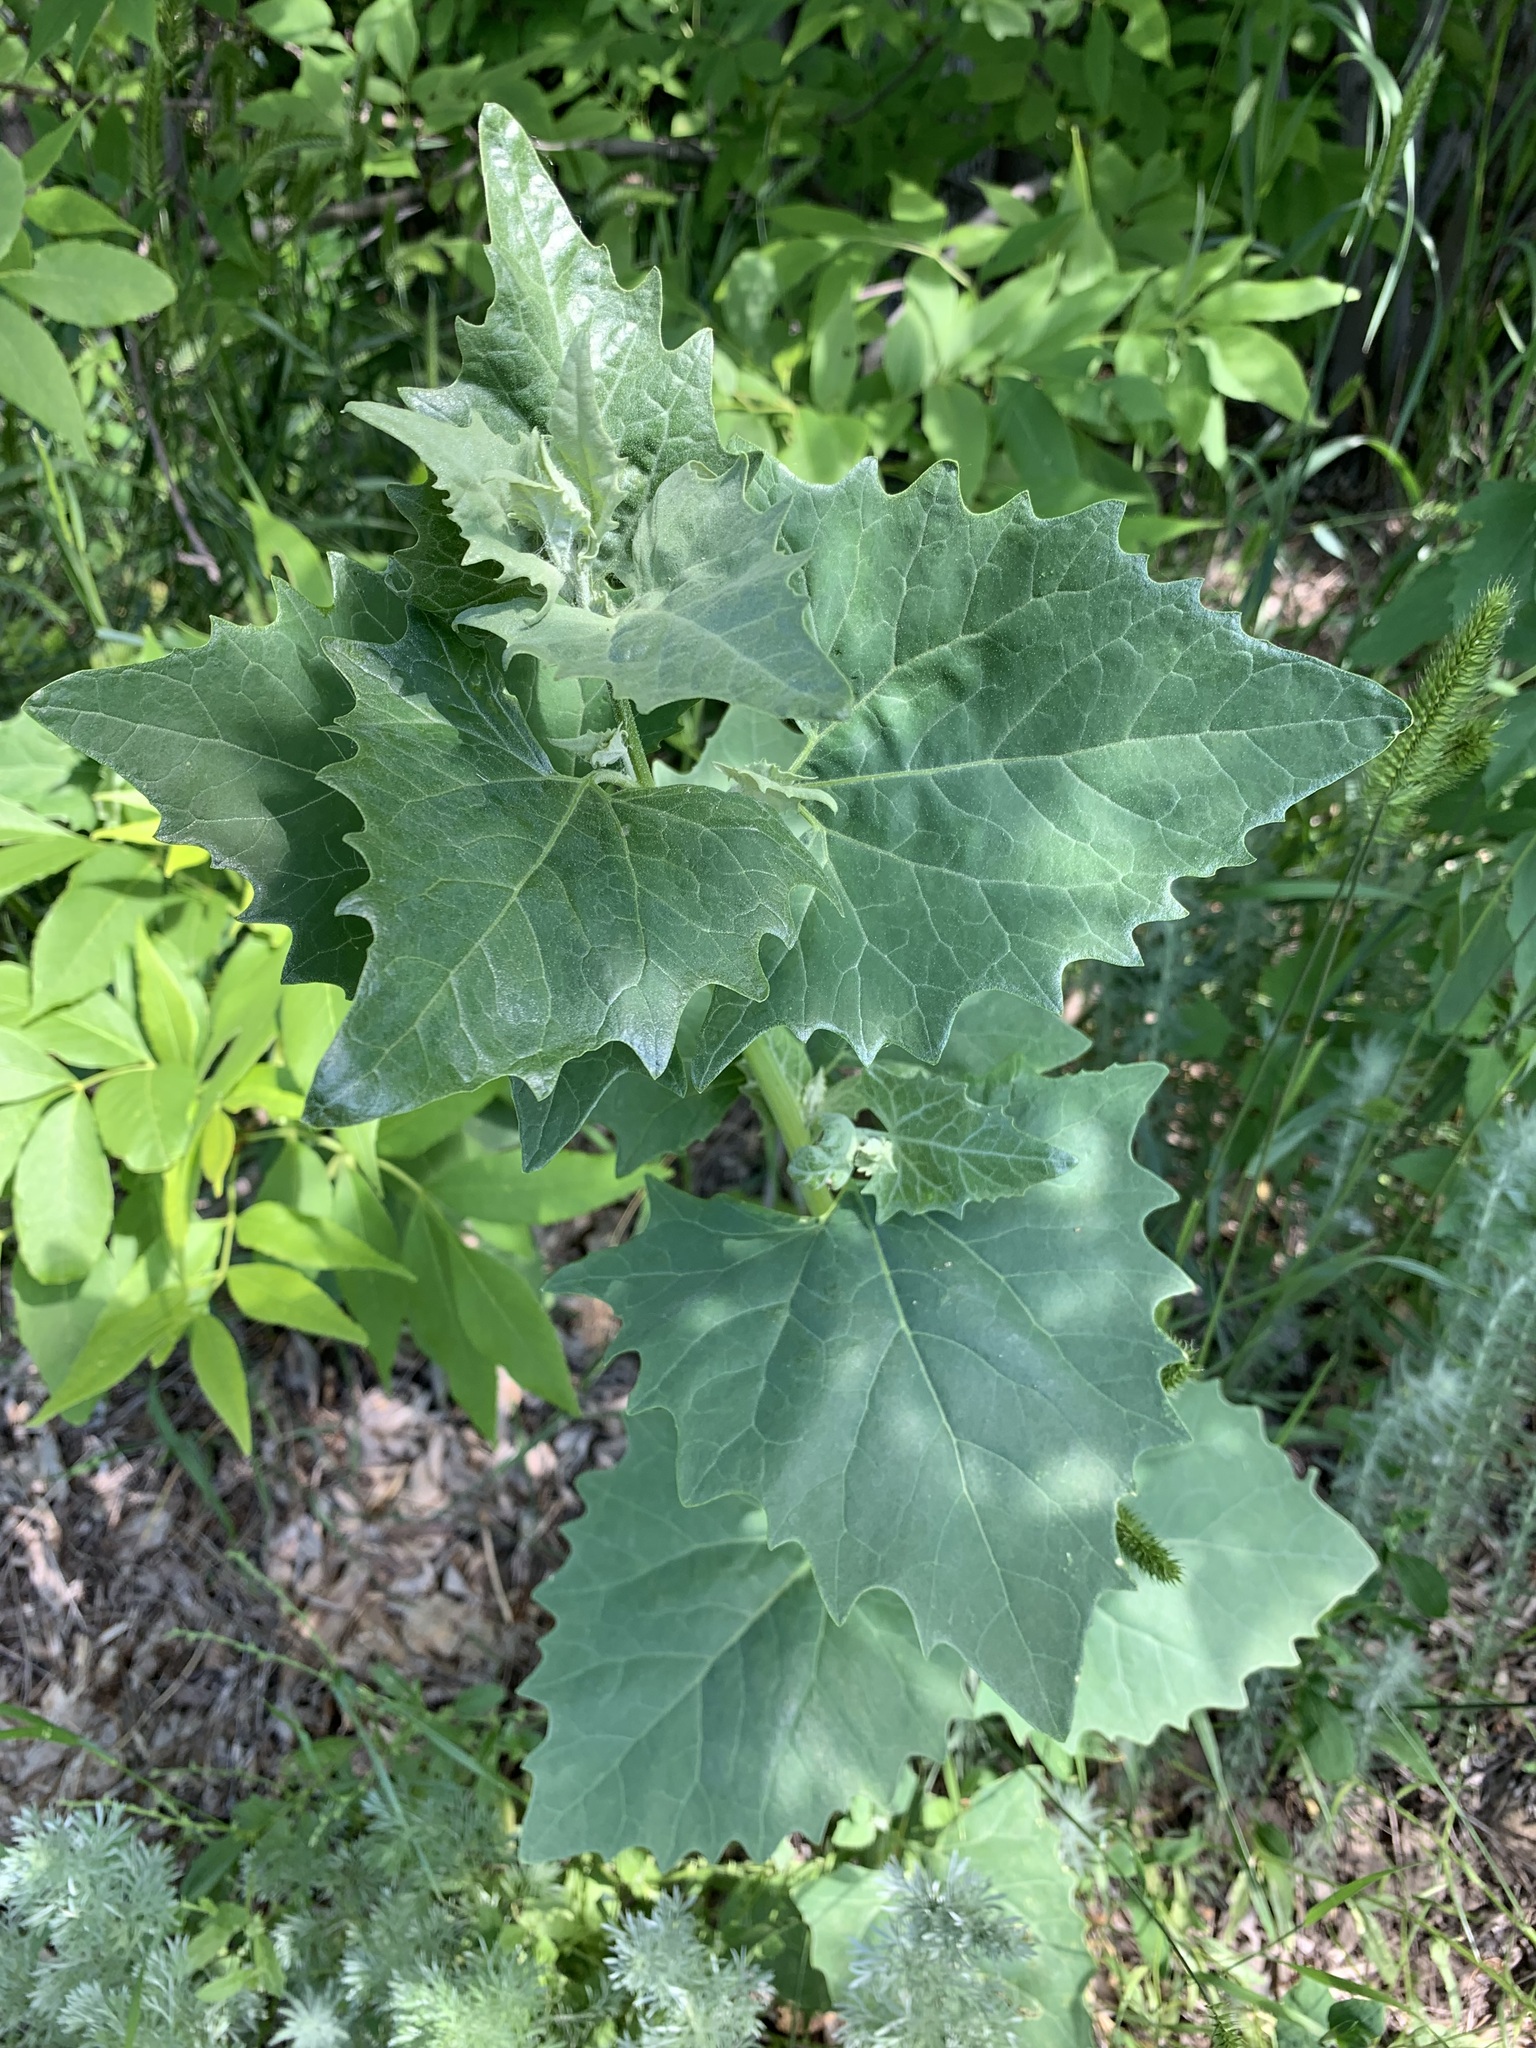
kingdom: Plantae
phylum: Tracheophyta
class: Magnoliopsida
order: Caryophyllales
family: Amaranthaceae
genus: Atriplex
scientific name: Atriplex sagittata
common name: Purple orache
